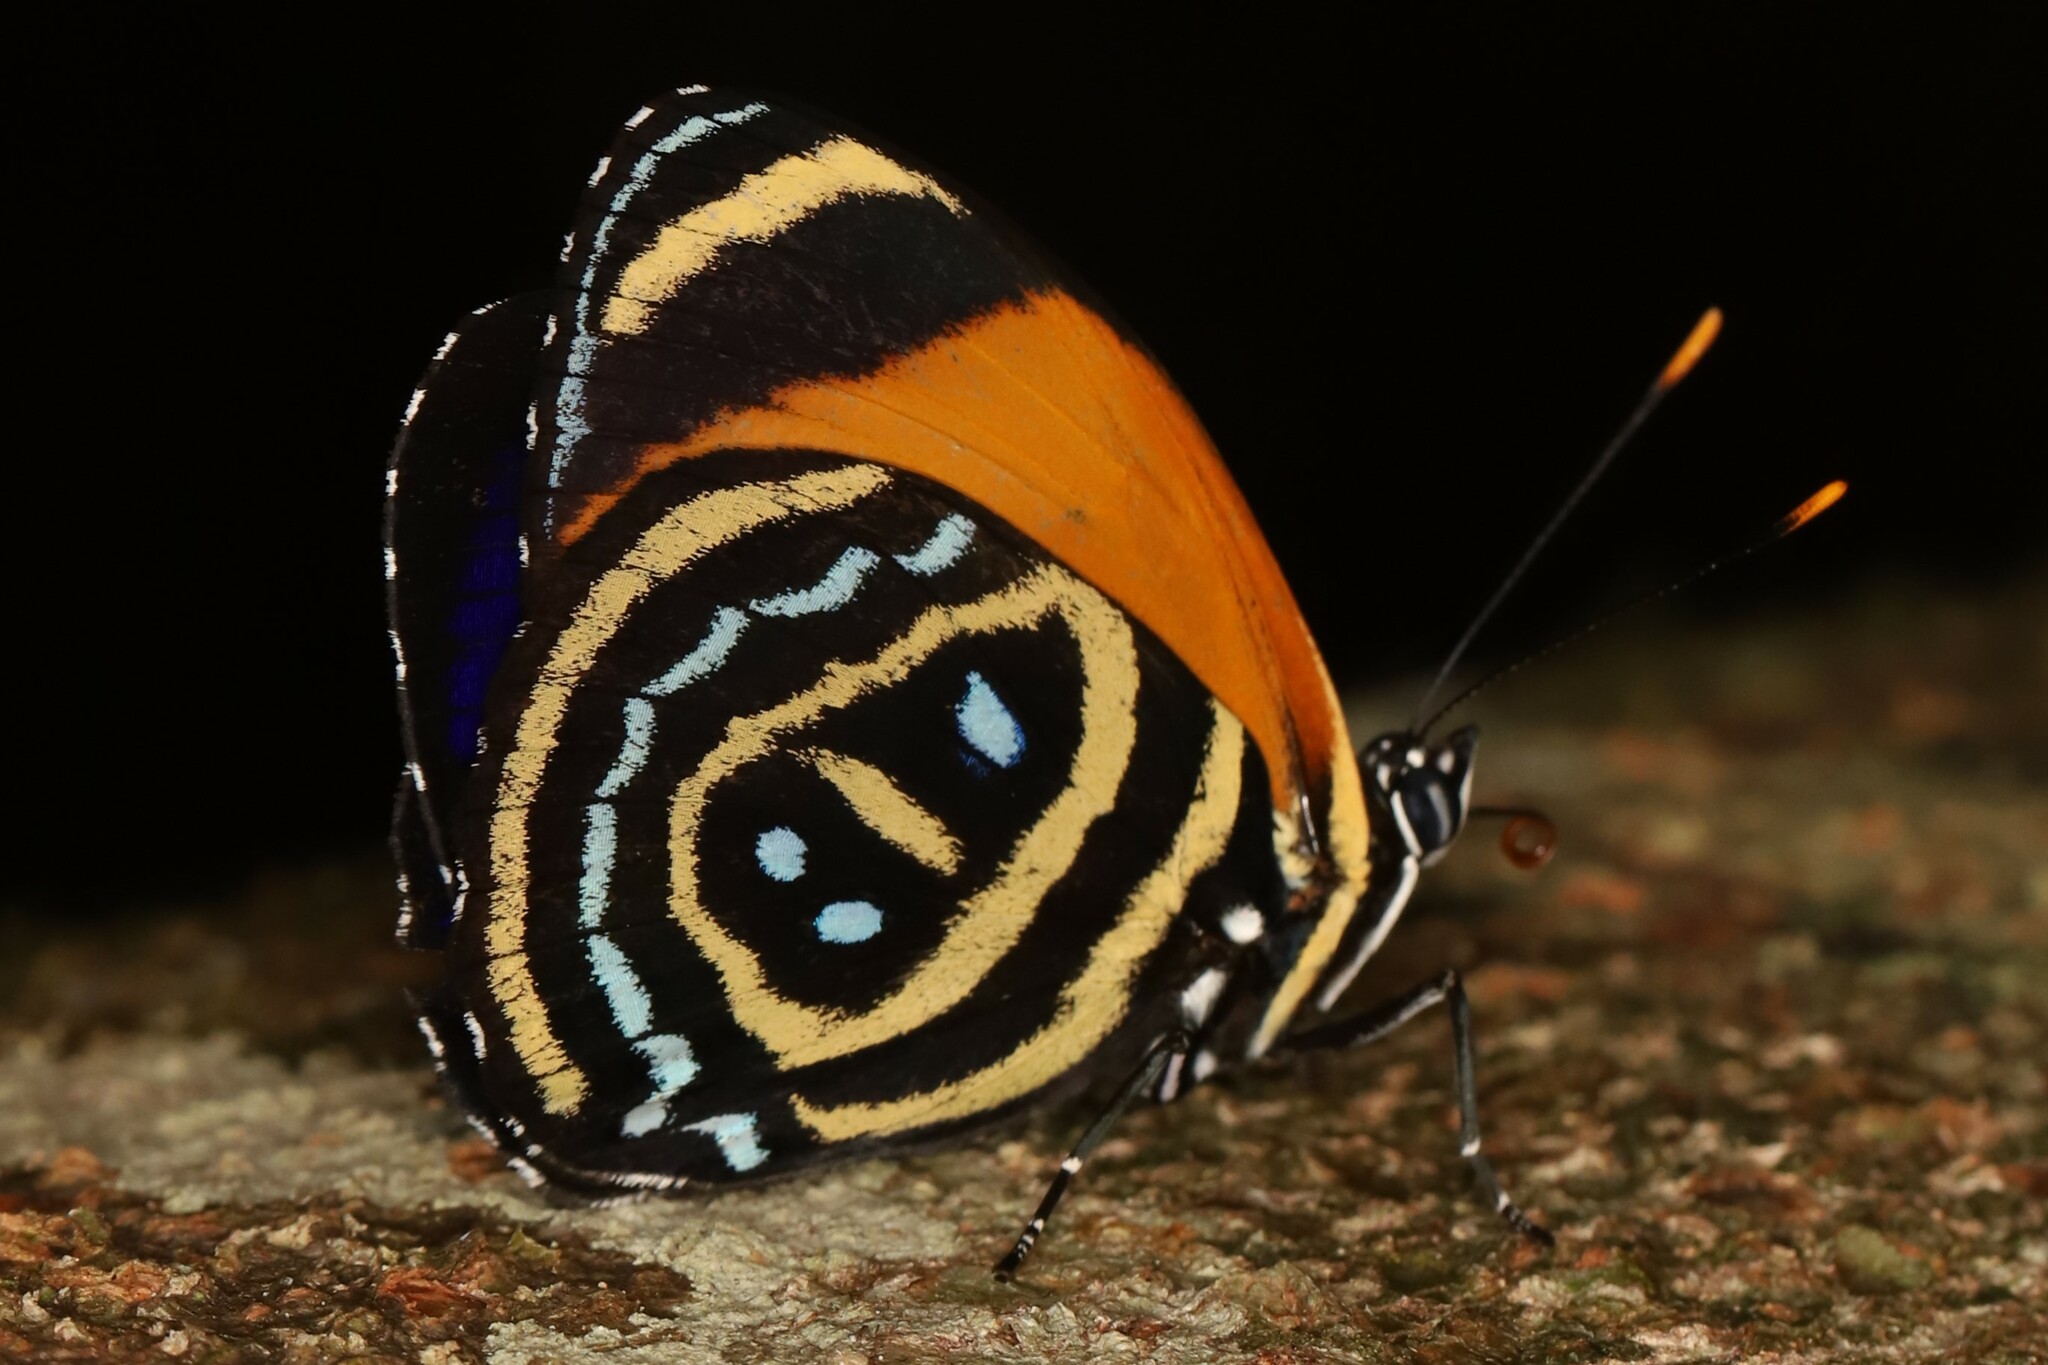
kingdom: Animalia
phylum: Arthropoda
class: Insecta
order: Lepidoptera
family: Nymphalidae
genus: Catagramma
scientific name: Catagramma Callicore excelsior
